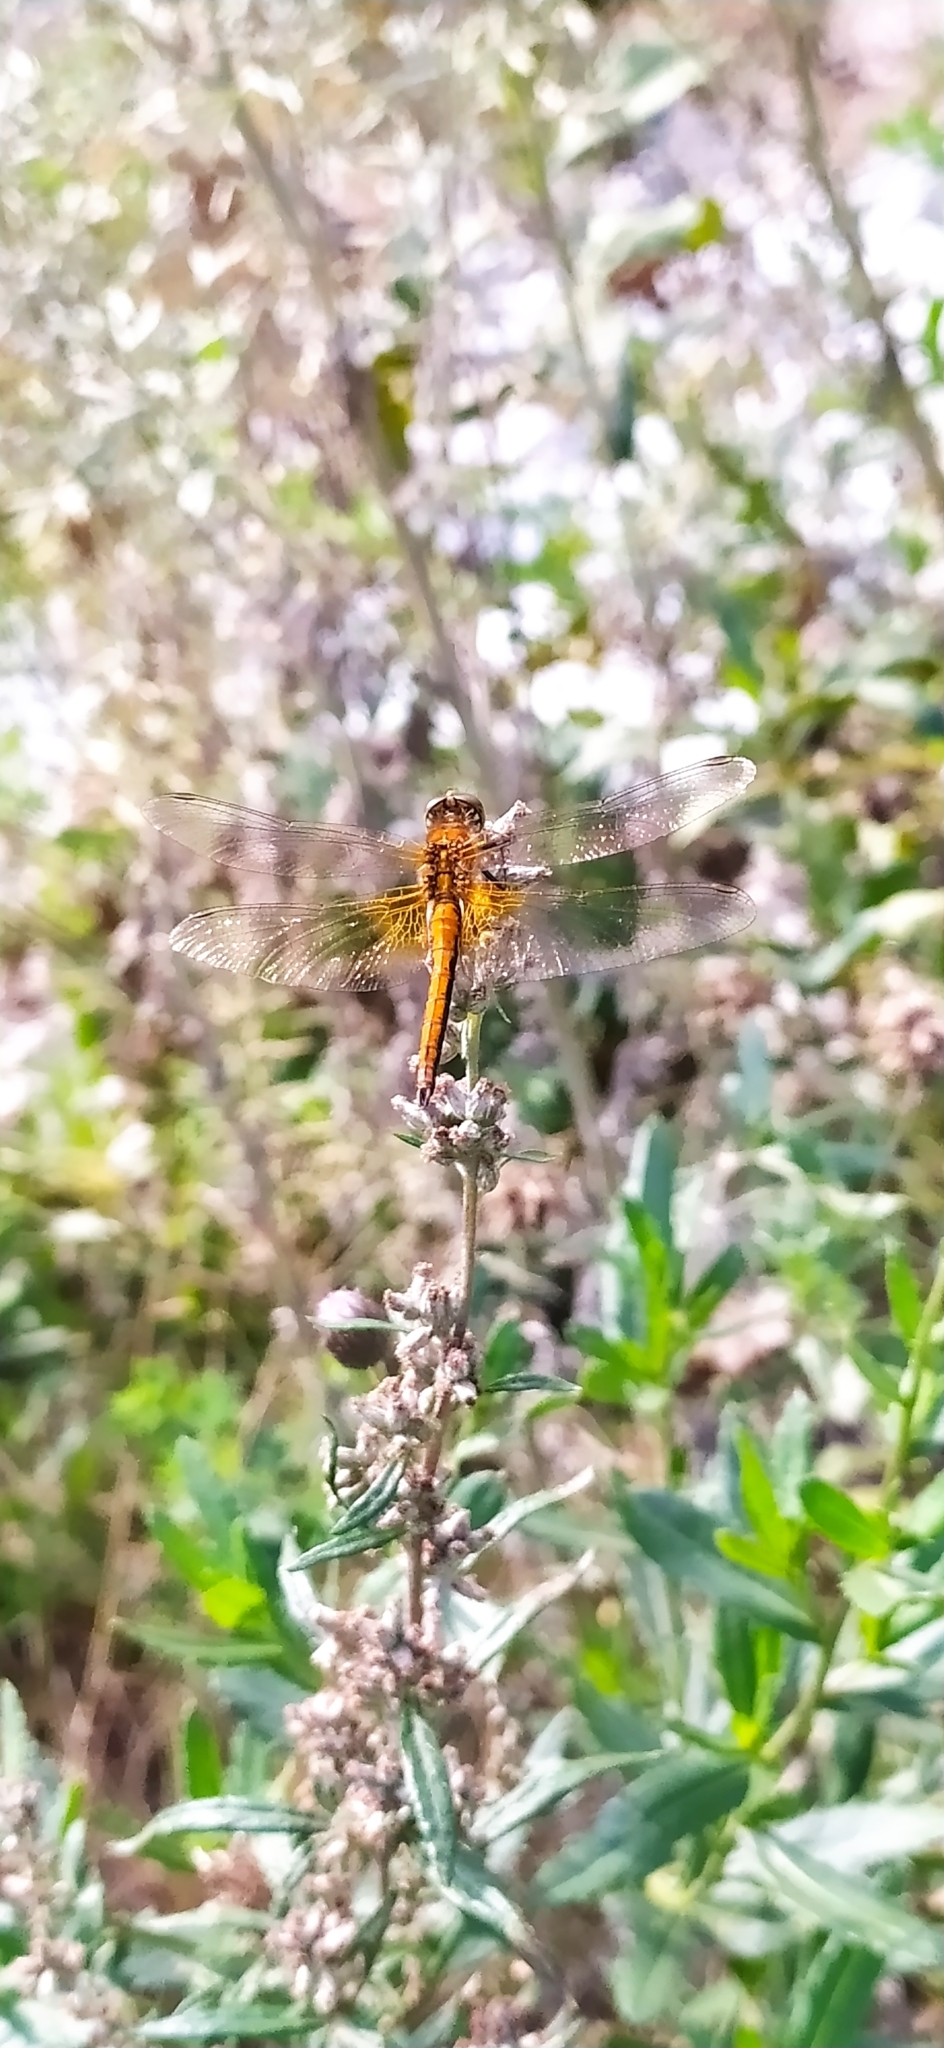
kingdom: Animalia
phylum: Arthropoda
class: Insecta
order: Odonata
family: Libellulidae
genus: Sympetrum
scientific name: Sympetrum flaveolum
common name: Yellow-winged darter
